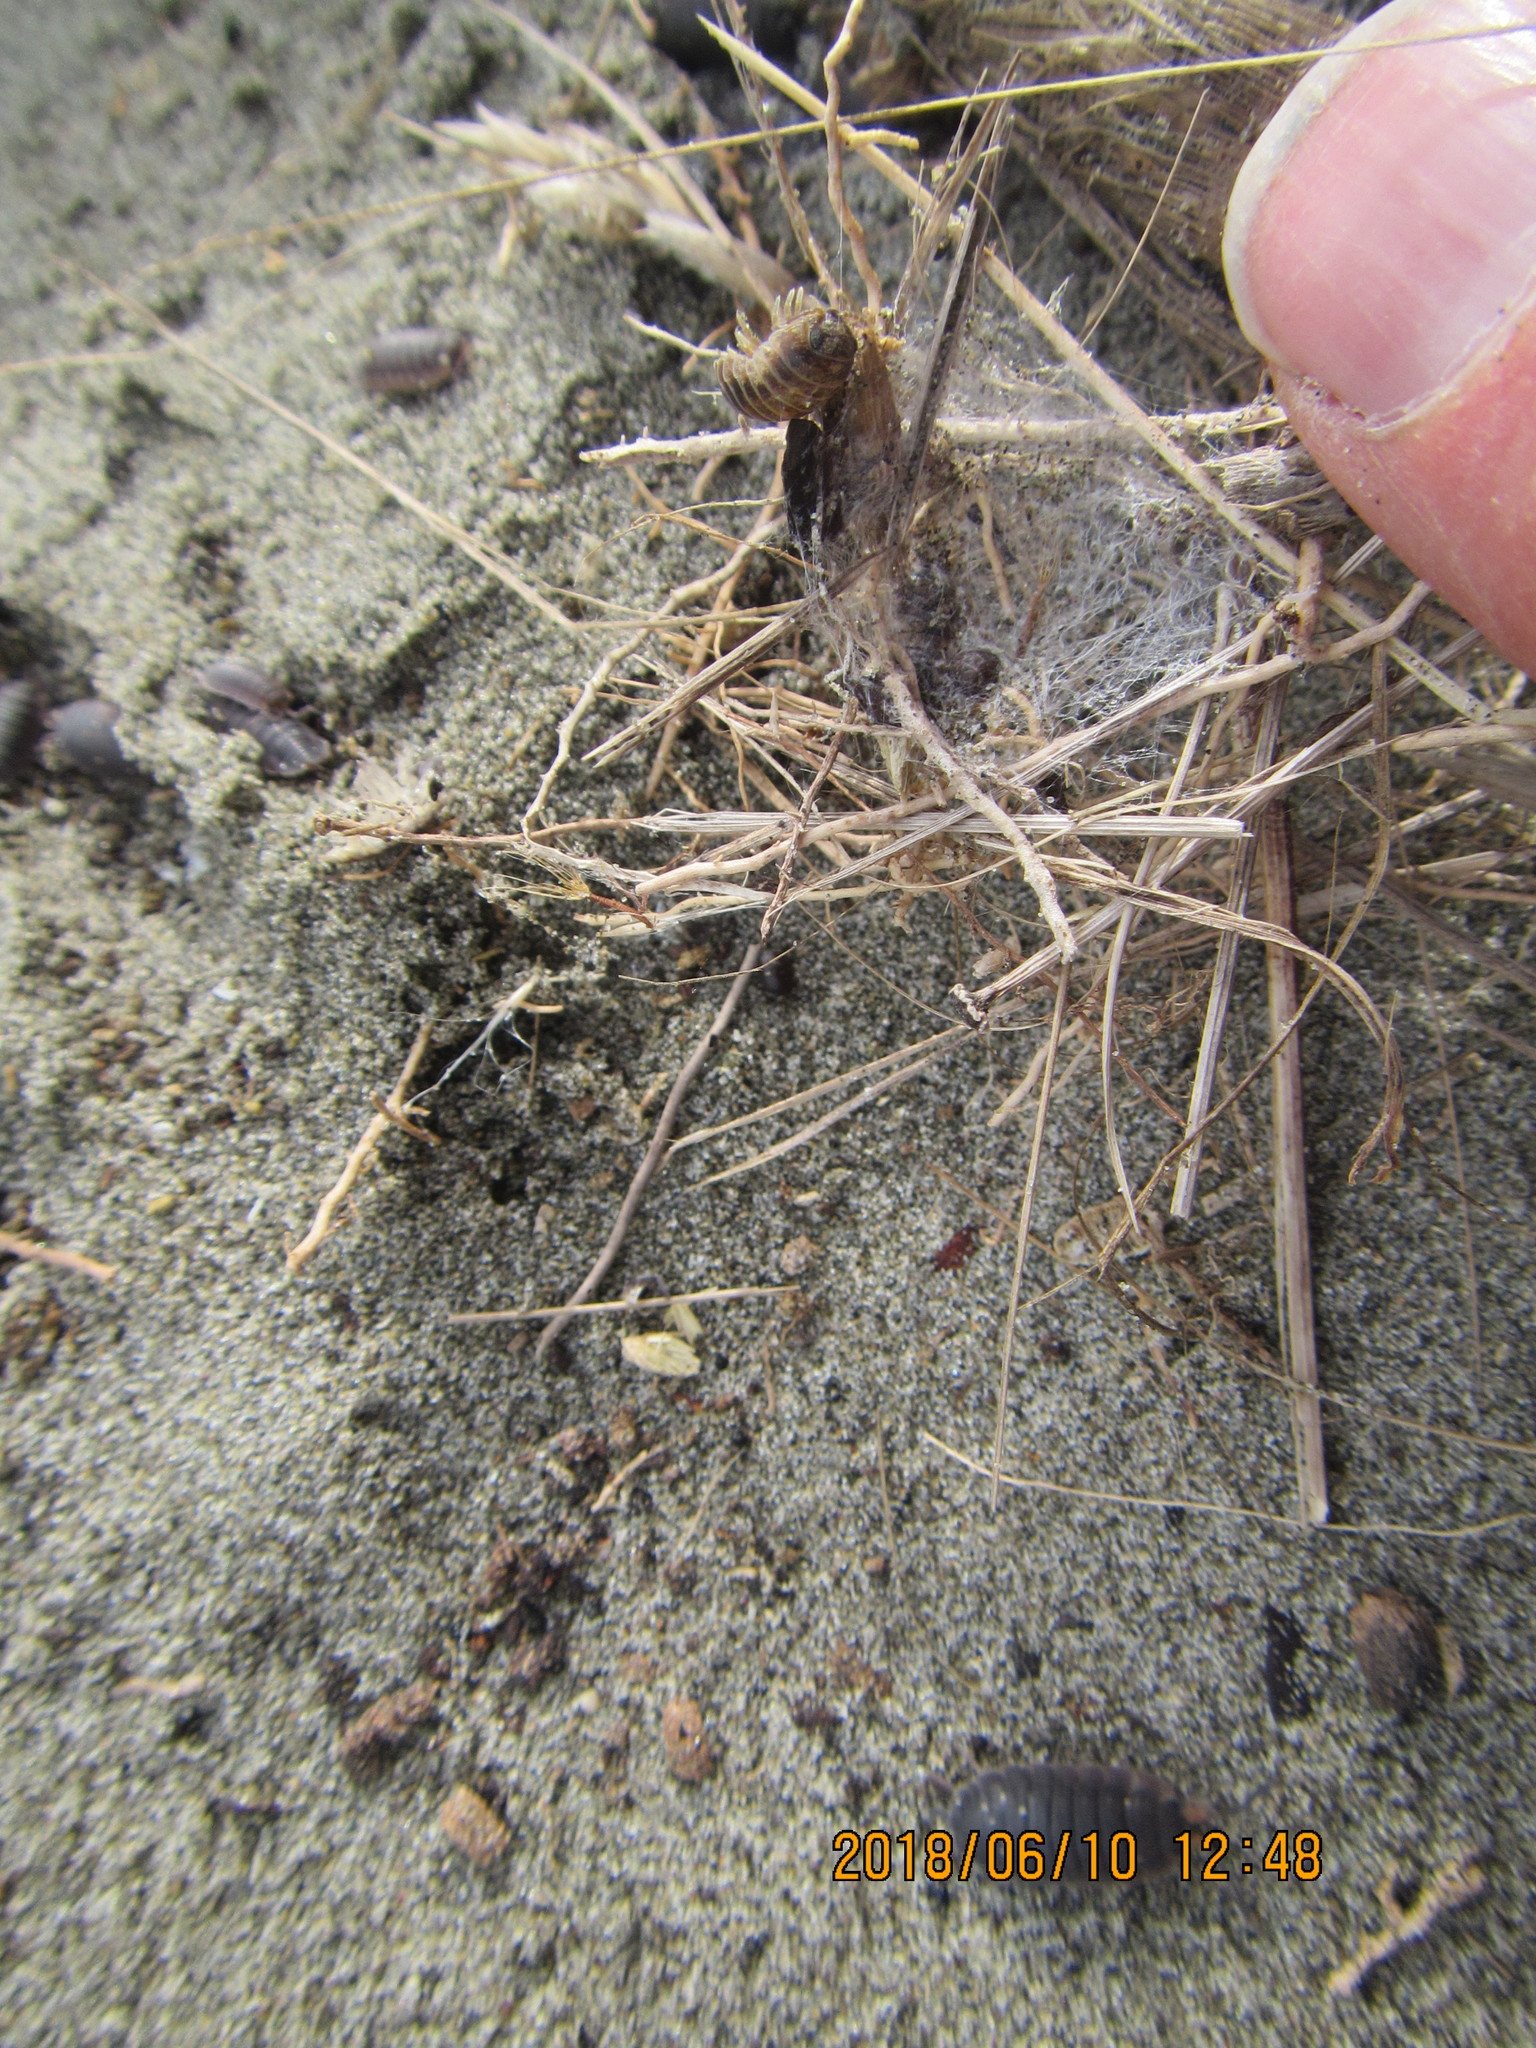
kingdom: Animalia
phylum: Arthropoda
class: Arachnida
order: Araneae
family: Thomisidae
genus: Sidymella
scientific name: Sidymella trapezia
